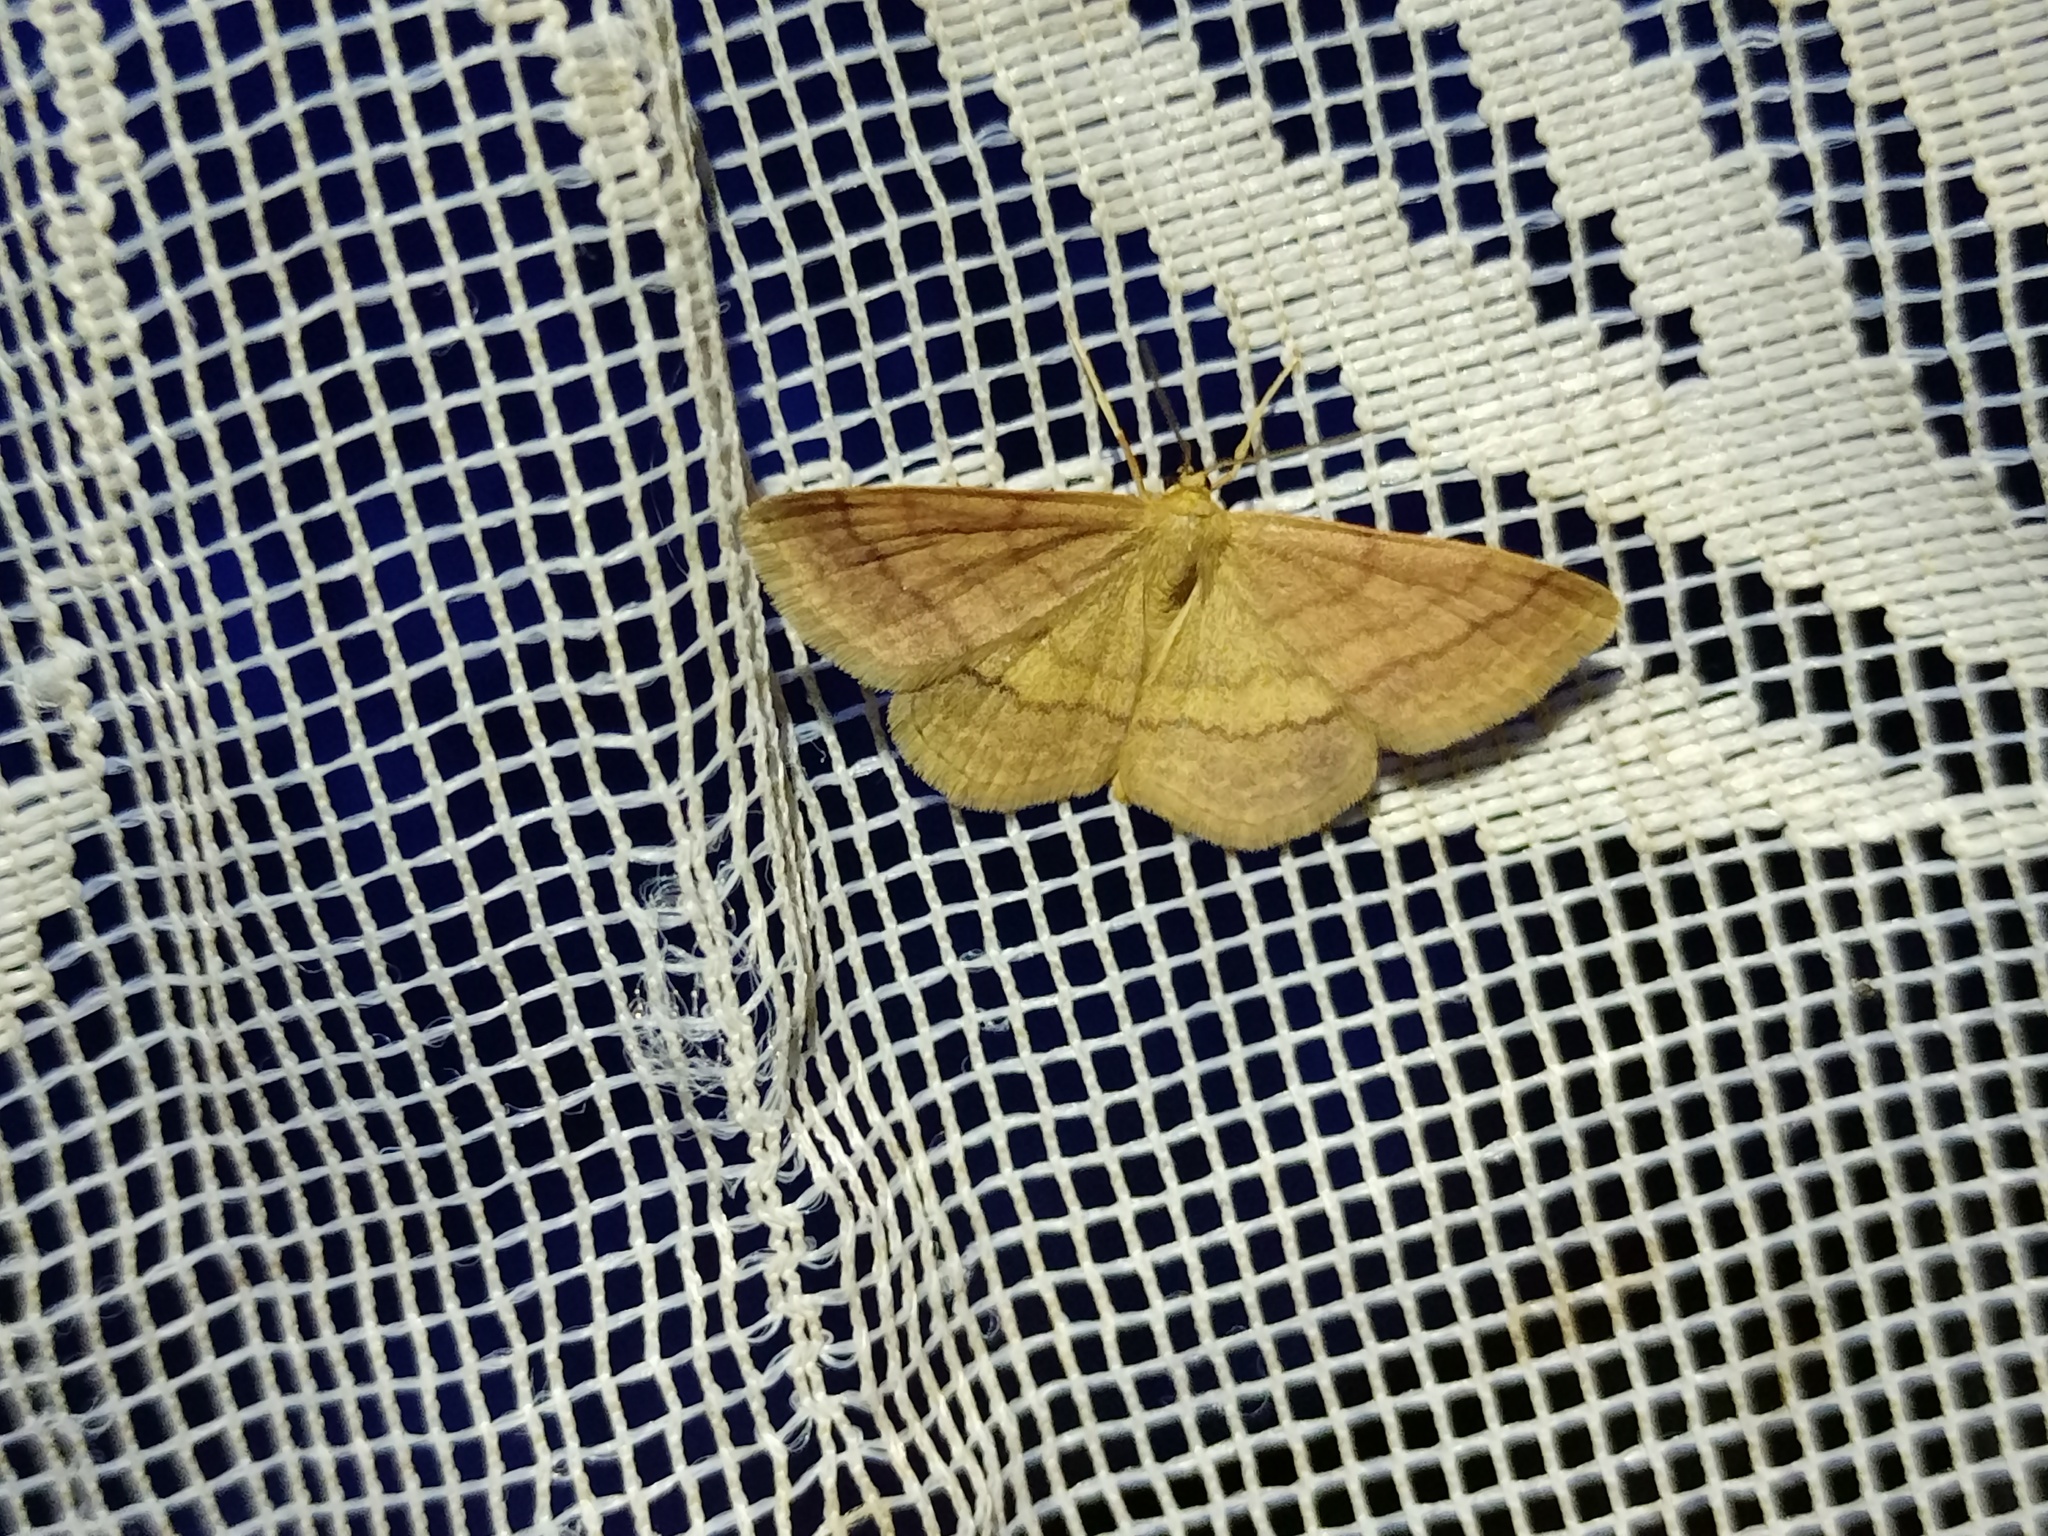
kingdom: Animalia
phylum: Arthropoda
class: Insecta
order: Lepidoptera
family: Geometridae
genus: Scopula
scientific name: Scopula rubiginata
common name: Tawny wave
